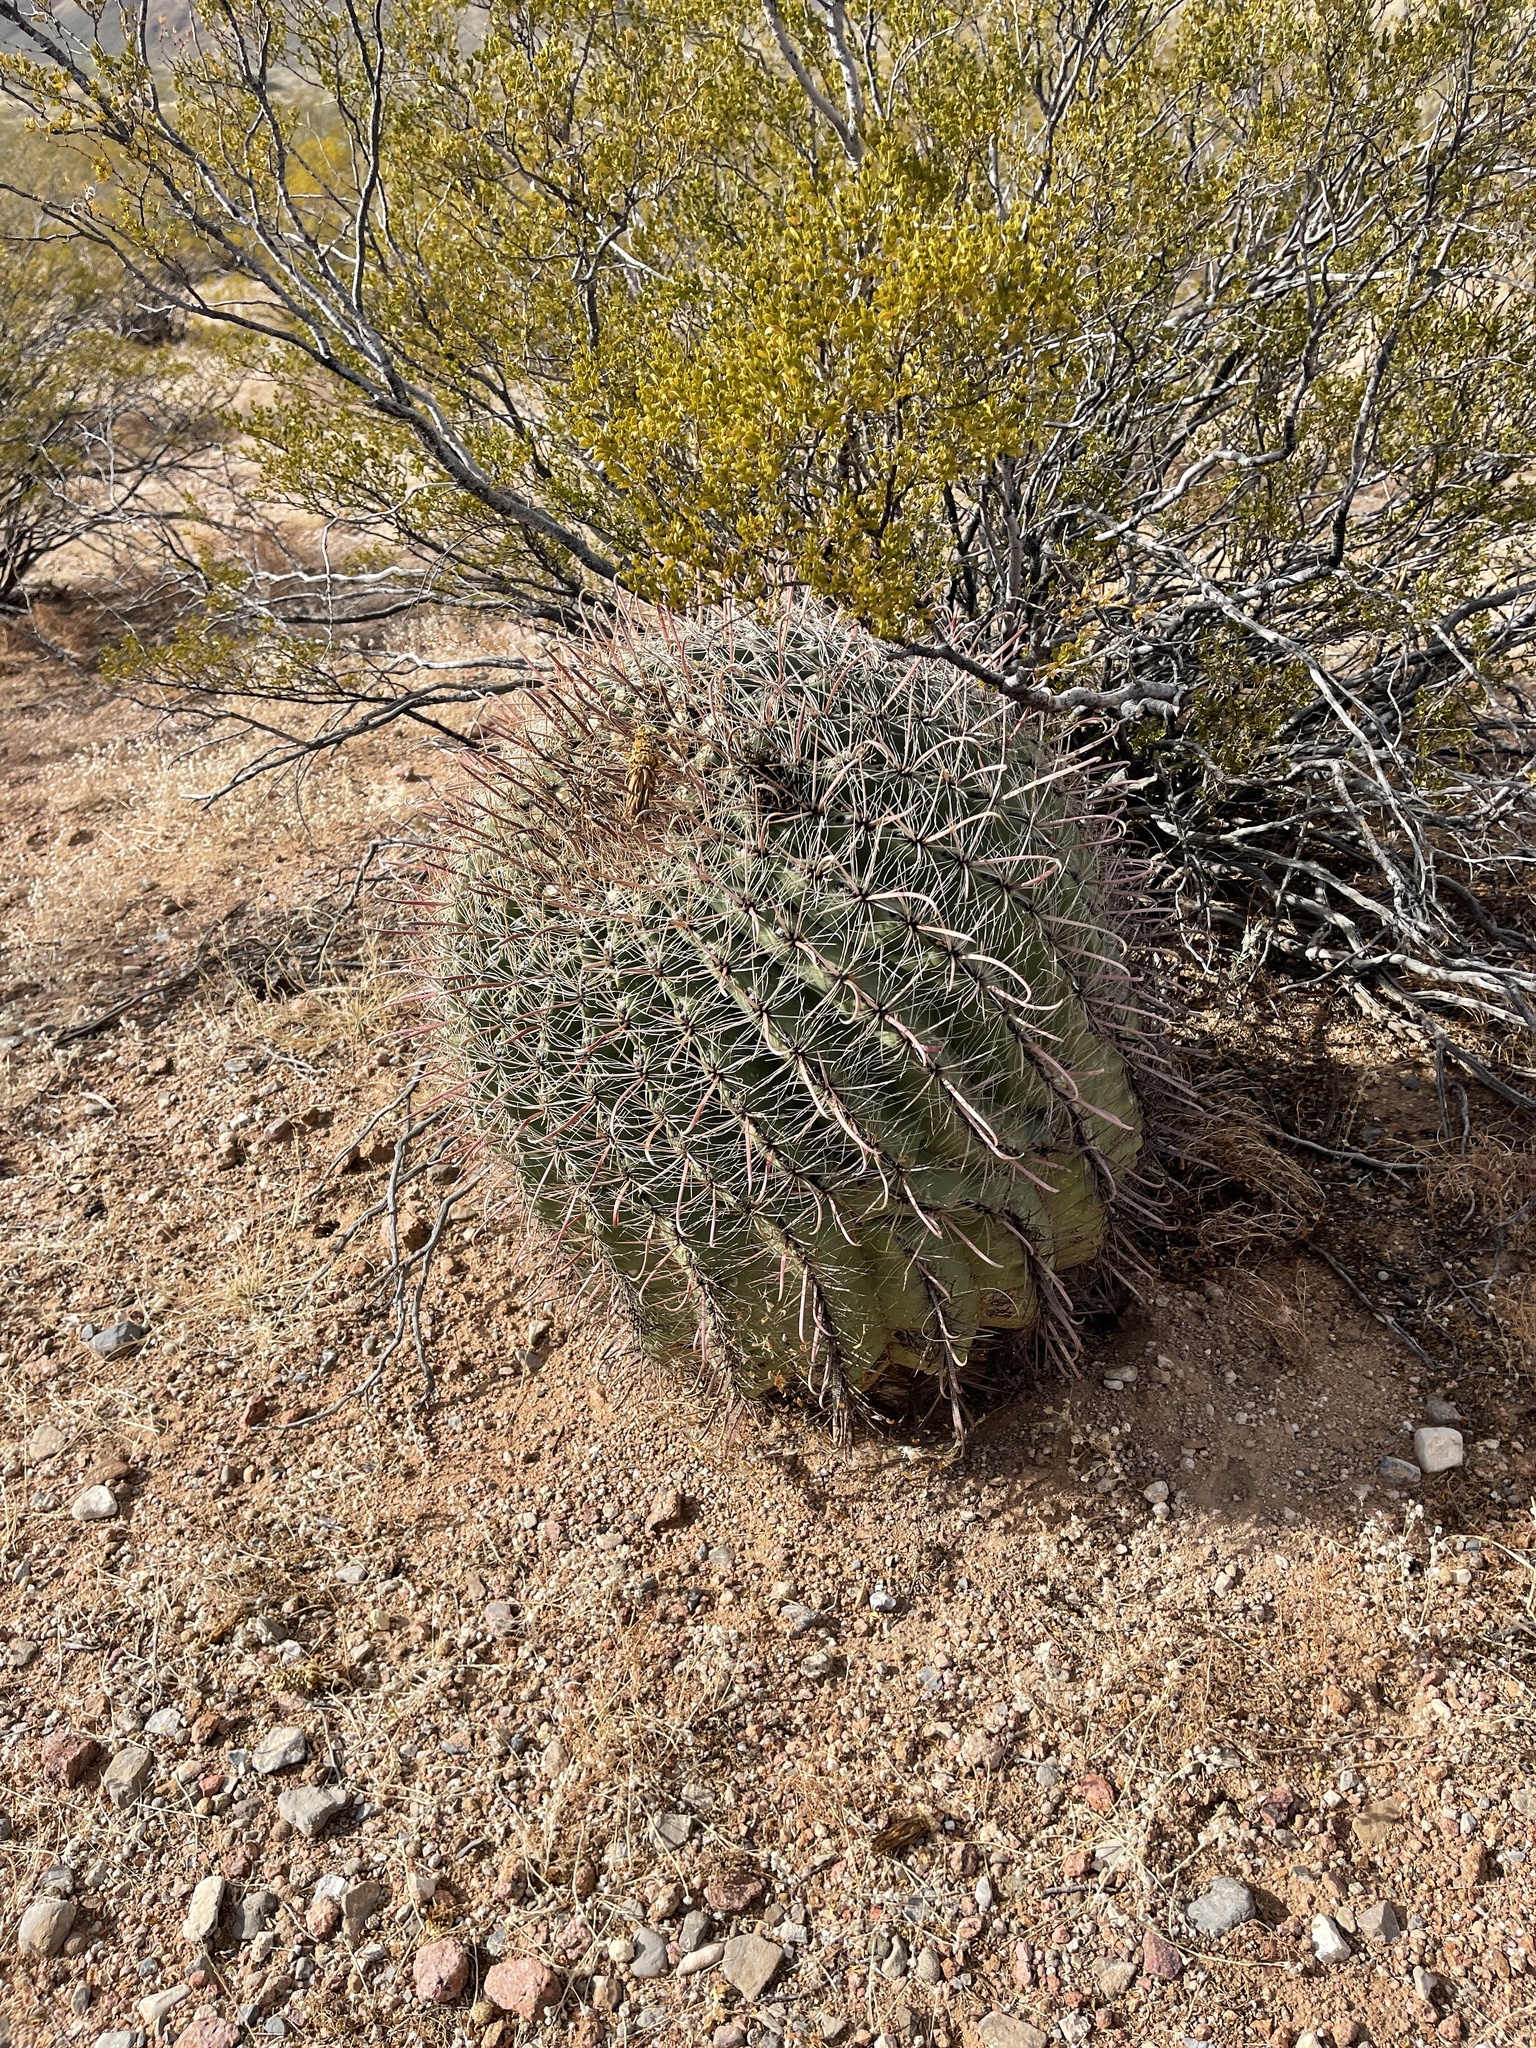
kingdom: Plantae
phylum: Tracheophyta
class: Magnoliopsida
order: Caryophyllales
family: Cactaceae
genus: Ferocactus
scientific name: Ferocactus wislizeni
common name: Candy barrel cactus
